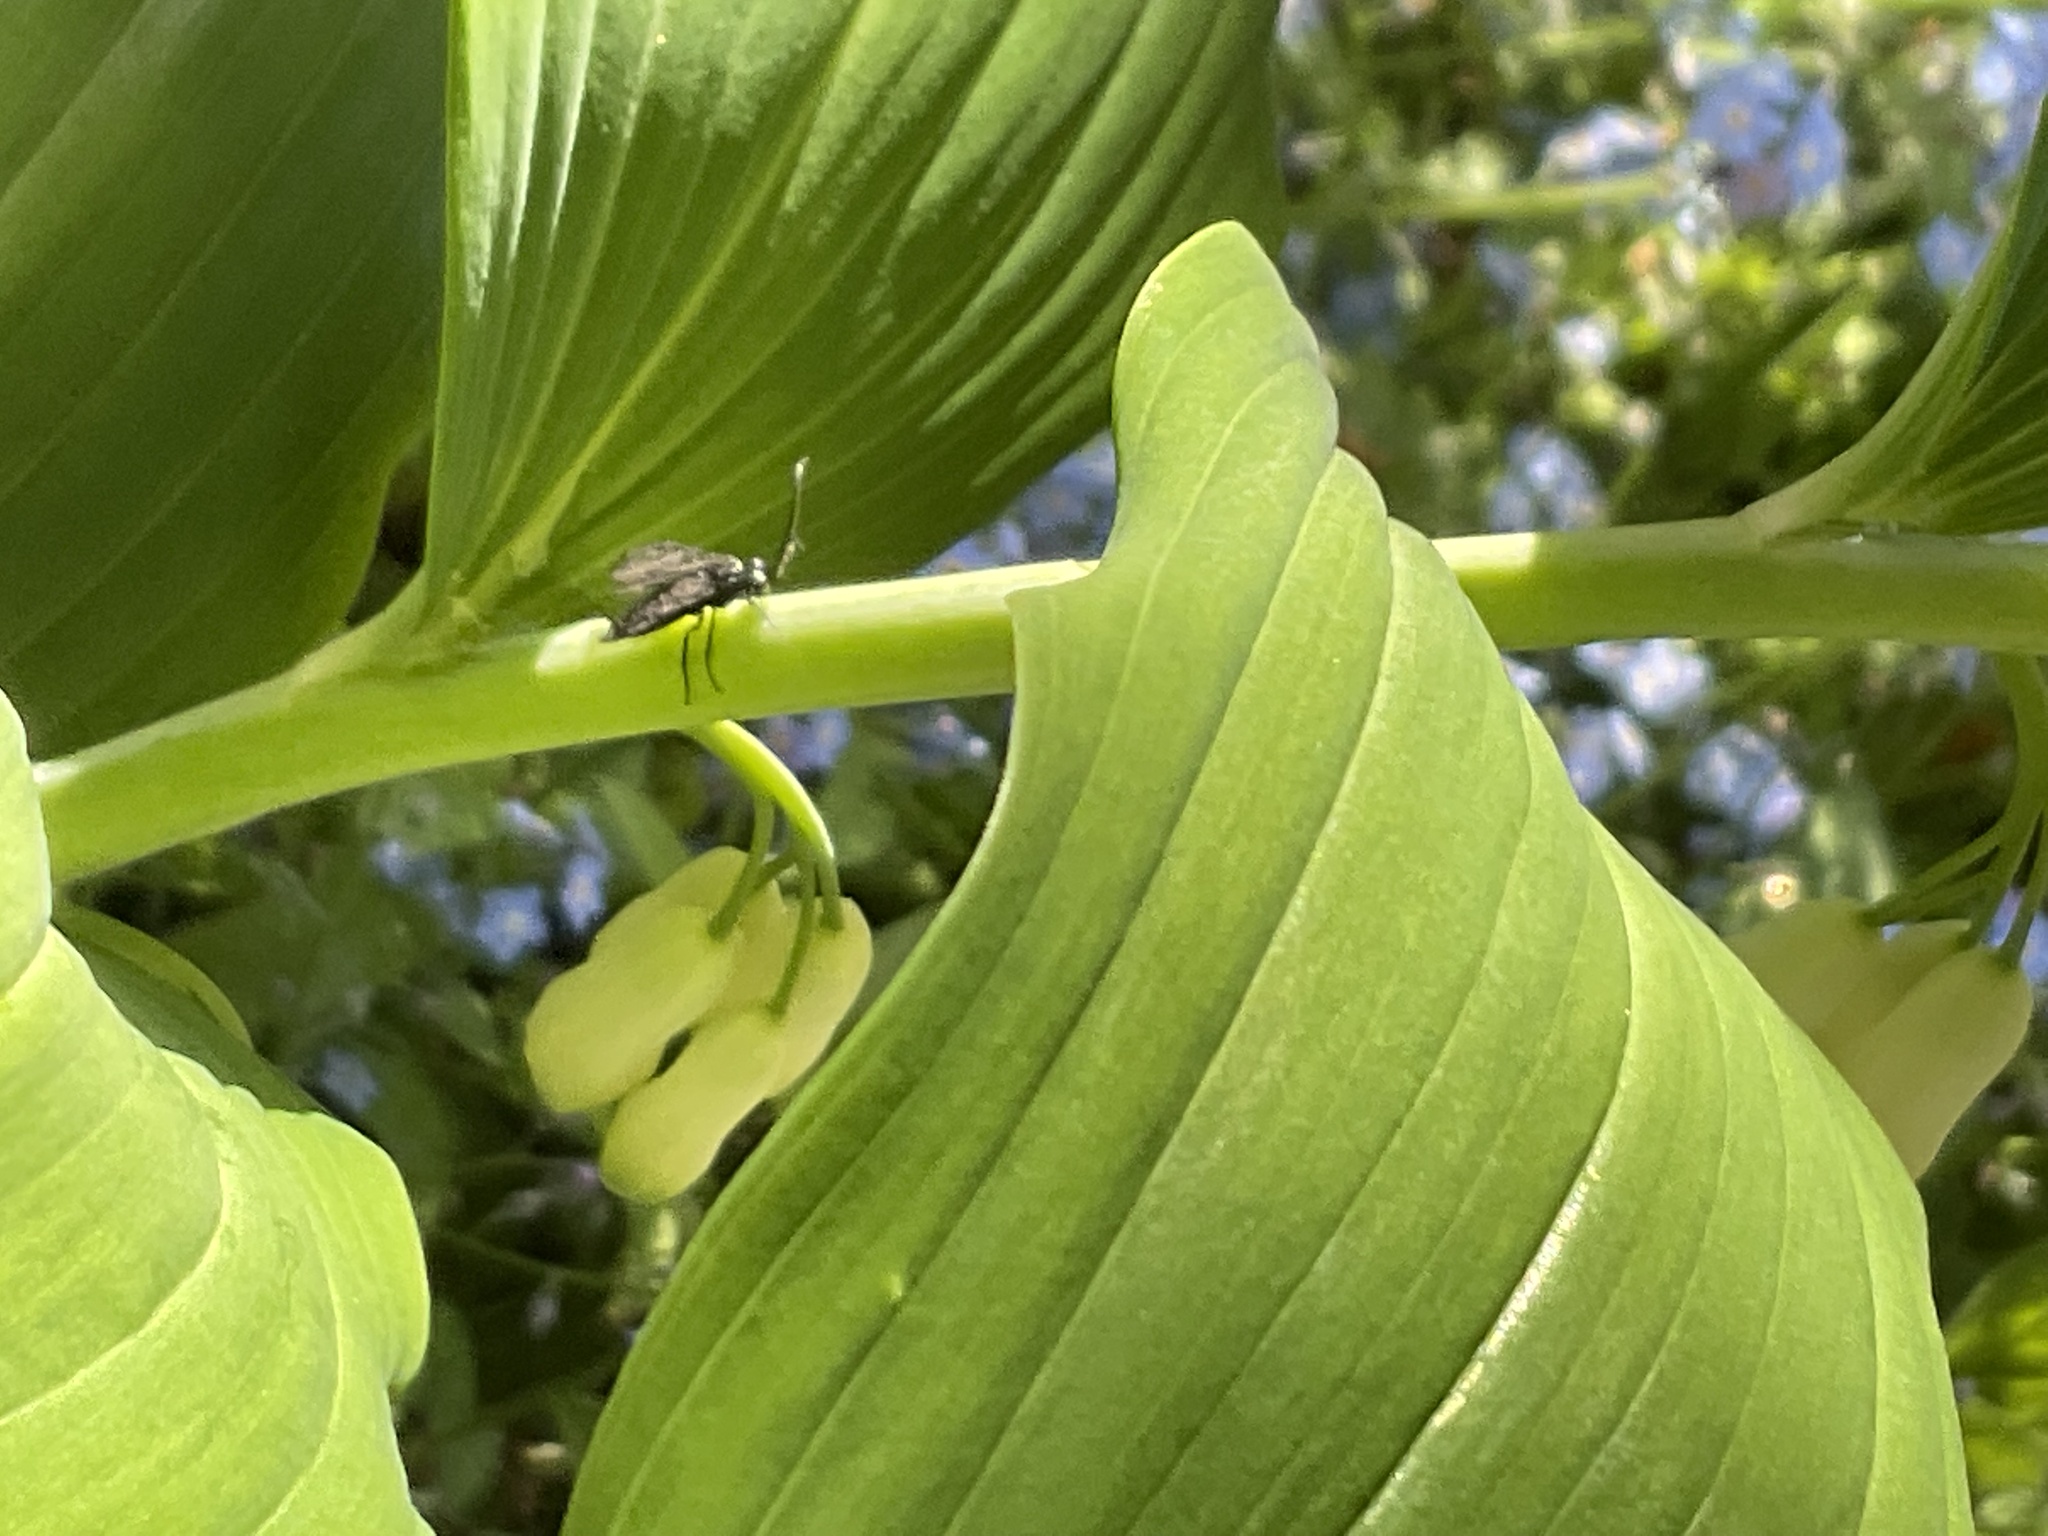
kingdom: Animalia
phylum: Arthropoda
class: Insecta
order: Hymenoptera
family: Tenthredinidae
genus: Phymatocera
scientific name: Phymatocera aterrima
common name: Solomon's-seal sawfly
